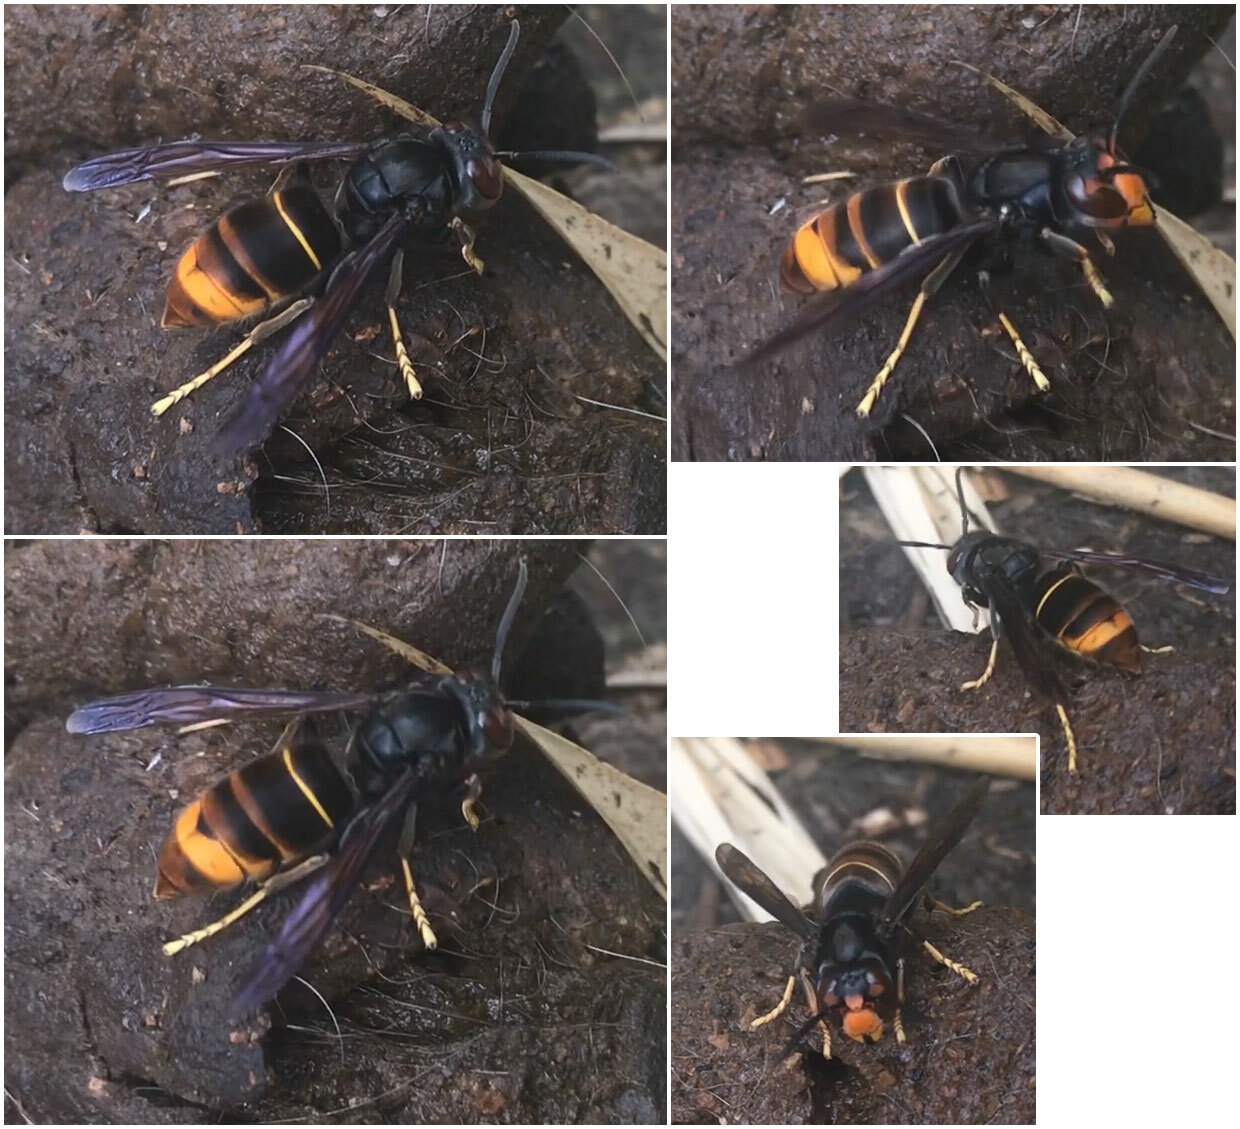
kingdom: Animalia
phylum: Arthropoda
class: Insecta
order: Hymenoptera
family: Vespidae
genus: Vespa
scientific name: Vespa velutina
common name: Asian hornet
